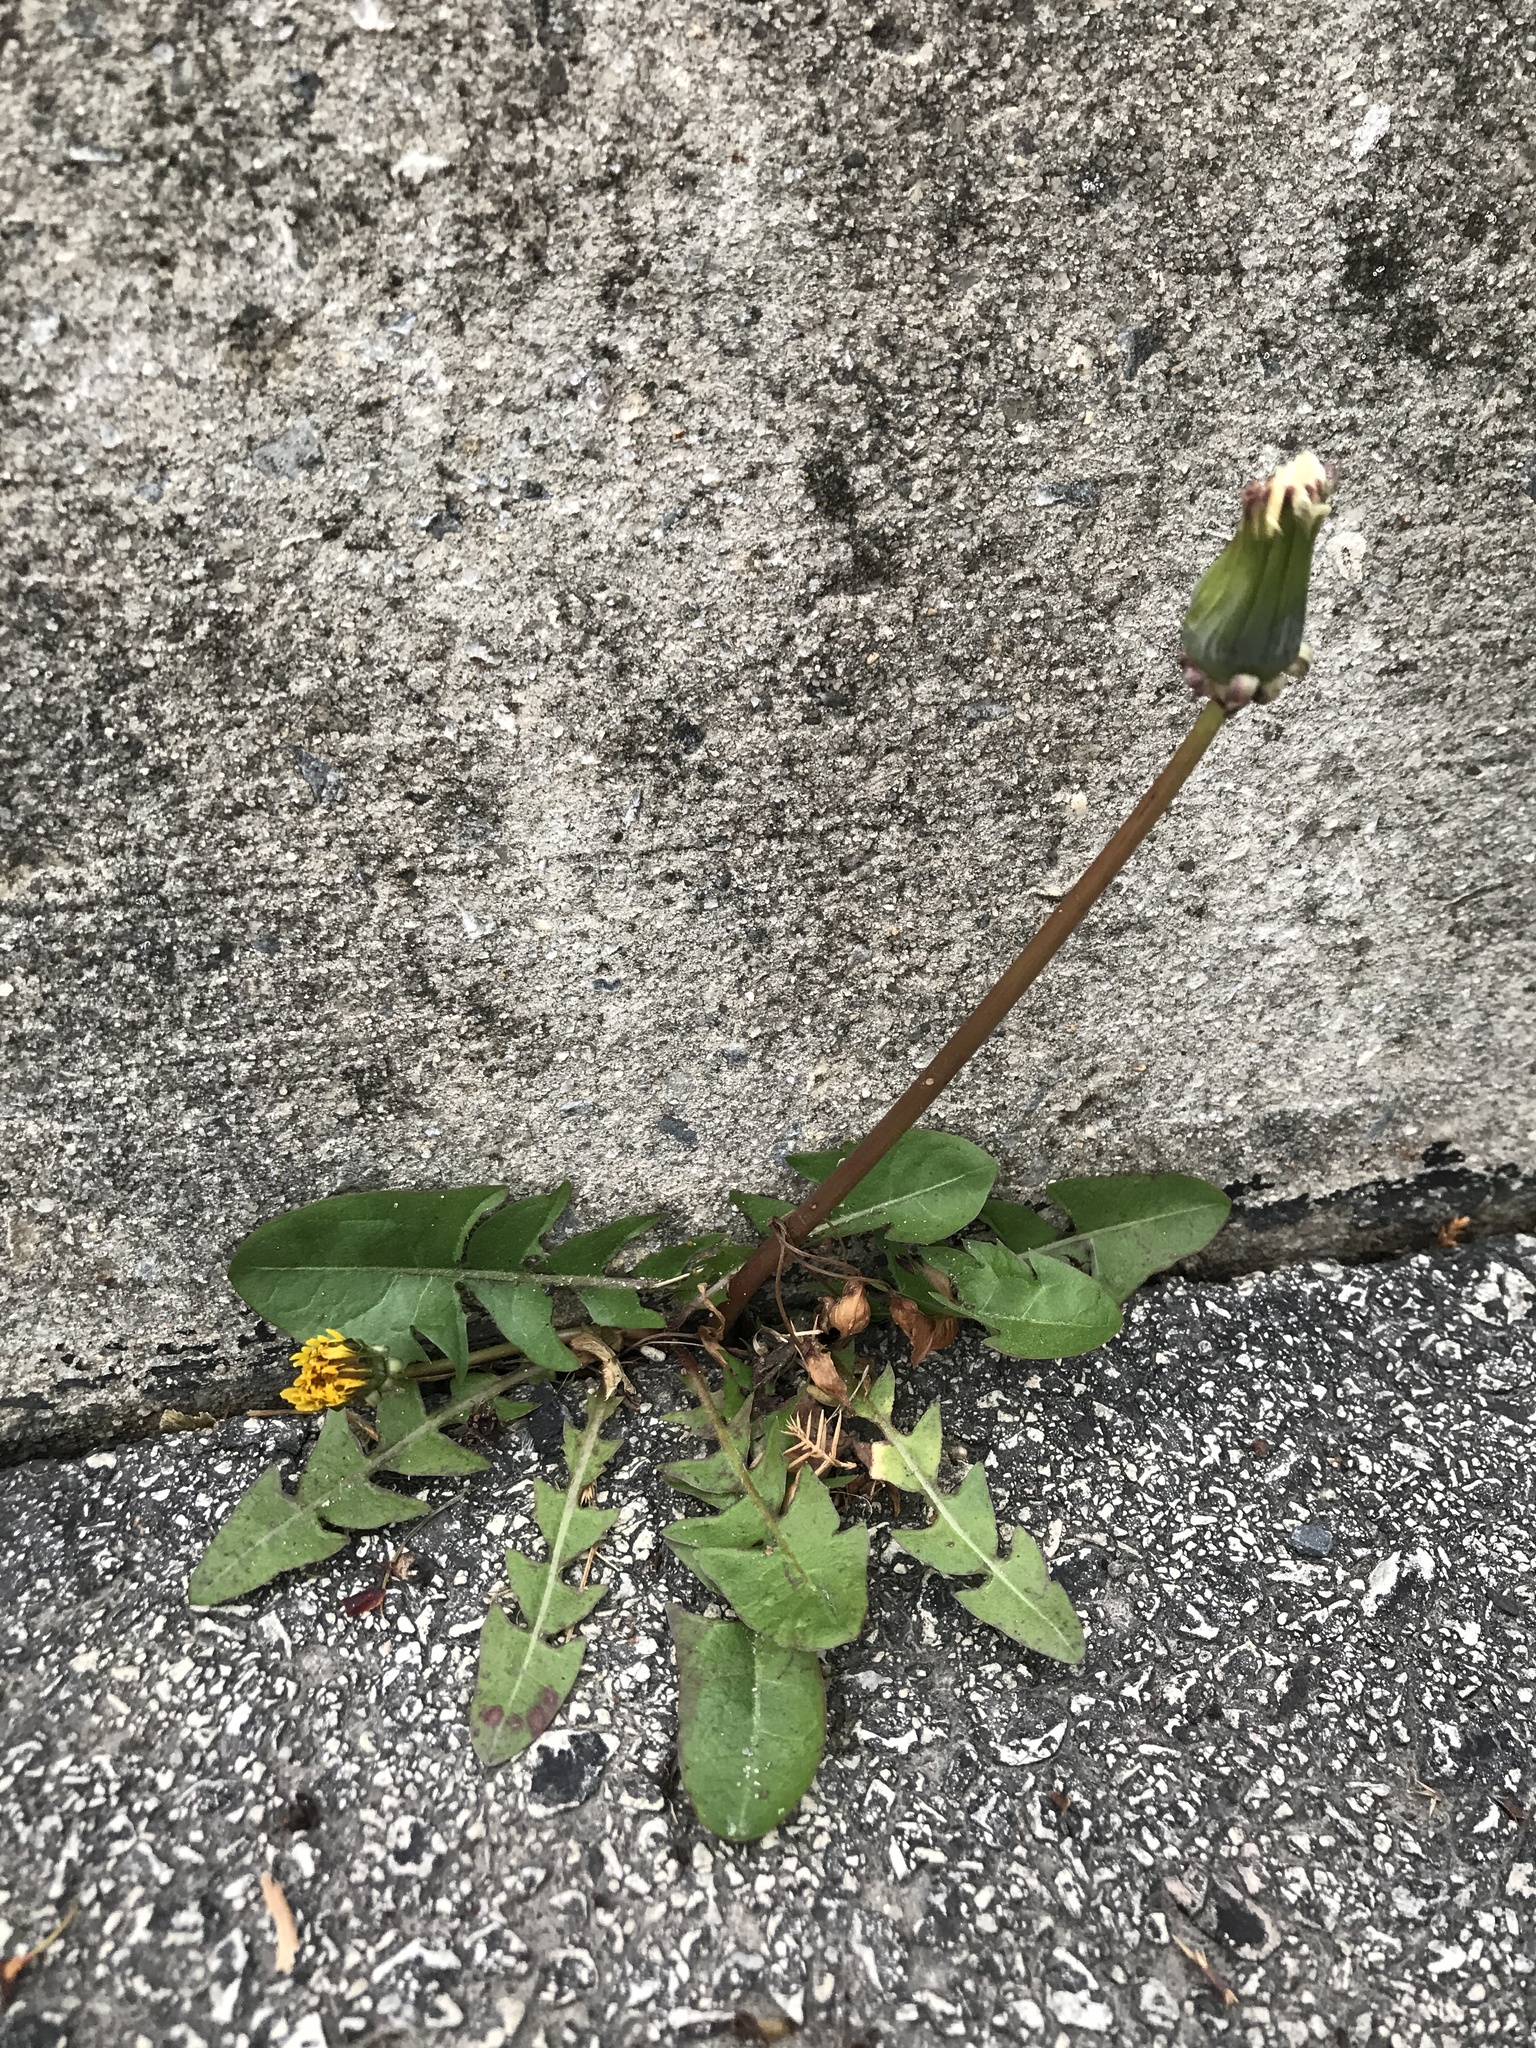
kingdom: Plantae
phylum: Tracheophyta
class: Magnoliopsida
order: Asterales
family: Asteraceae
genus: Taraxacum
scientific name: Taraxacum officinale
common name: Common dandelion
